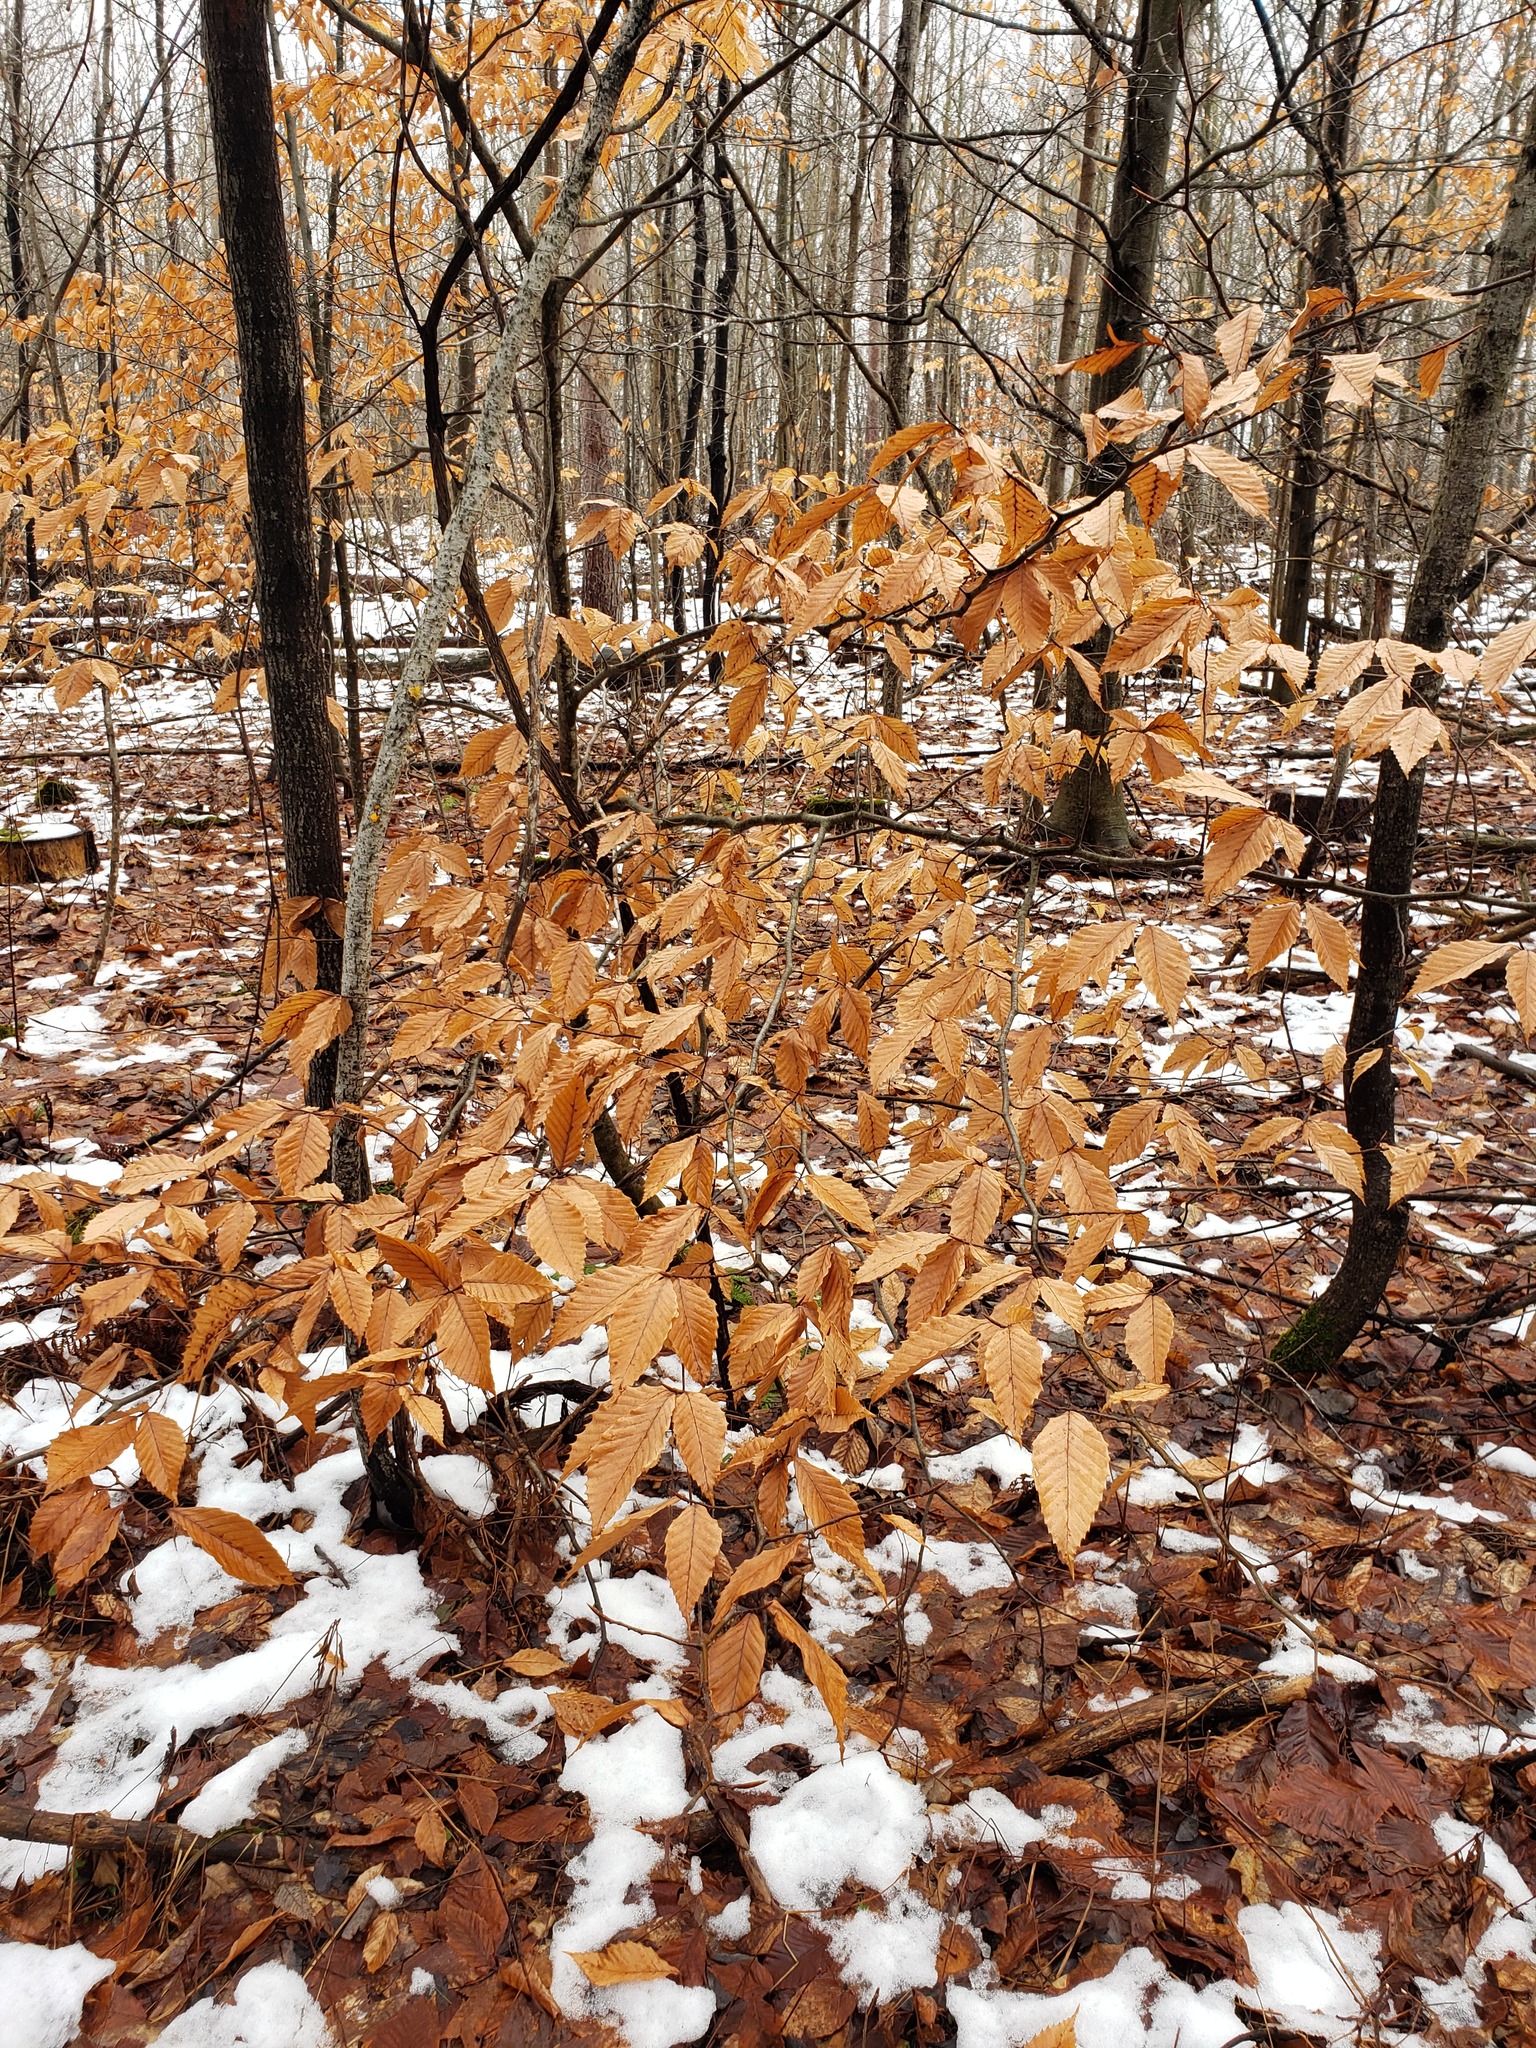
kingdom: Plantae
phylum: Tracheophyta
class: Magnoliopsida
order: Fagales
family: Fagaceae
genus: Fagus
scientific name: Fagus grandifolia
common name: American beech
